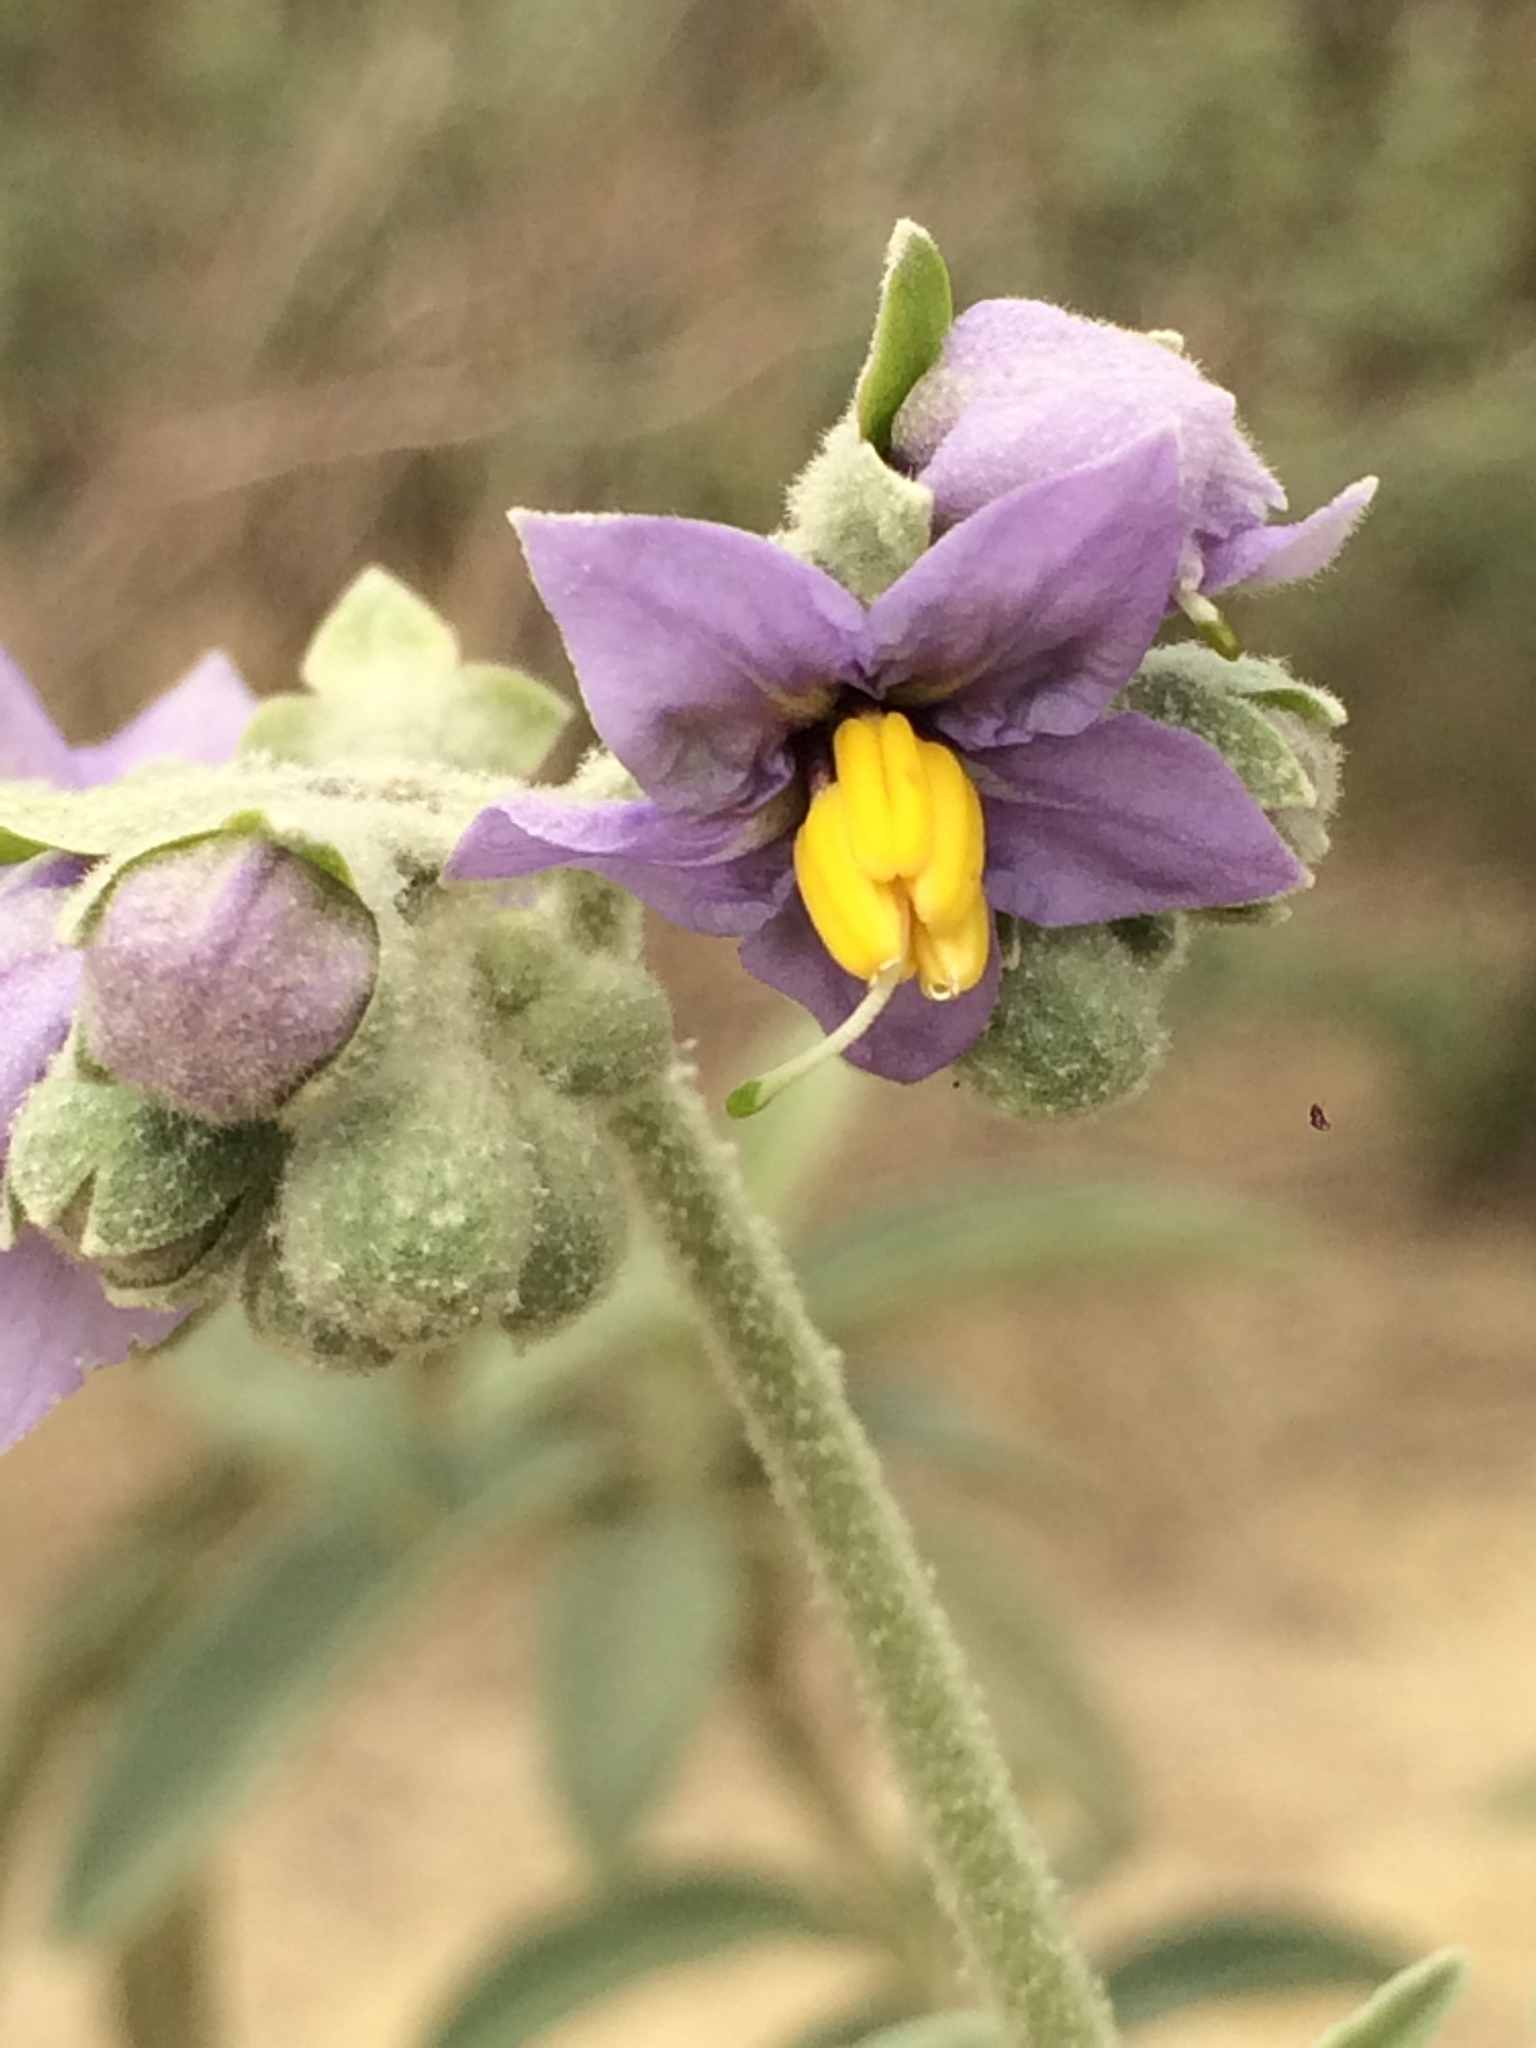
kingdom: Plantae
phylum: Tracheophyta
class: Magnoliopsida
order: Solanales
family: Solanaceae
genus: Solanum
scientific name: Solanum stipulaceum
